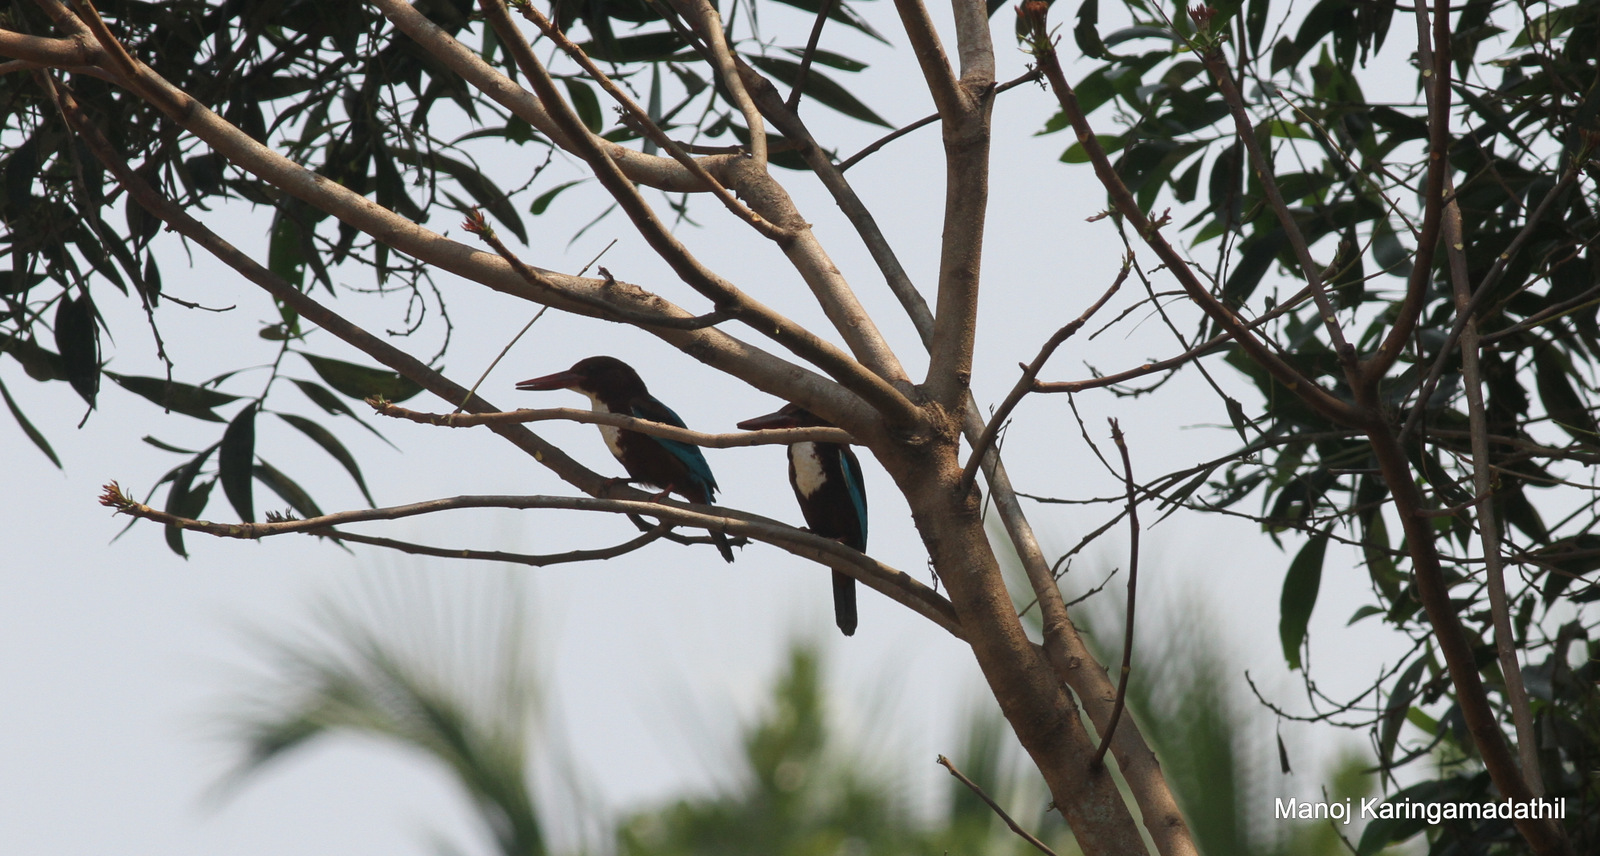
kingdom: Animalia
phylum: Chordata
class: Aves
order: Coraciiformes
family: Alcedinidae
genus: Halcyon
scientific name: Halcyon smyrnensis
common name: White-throated kingfisher
